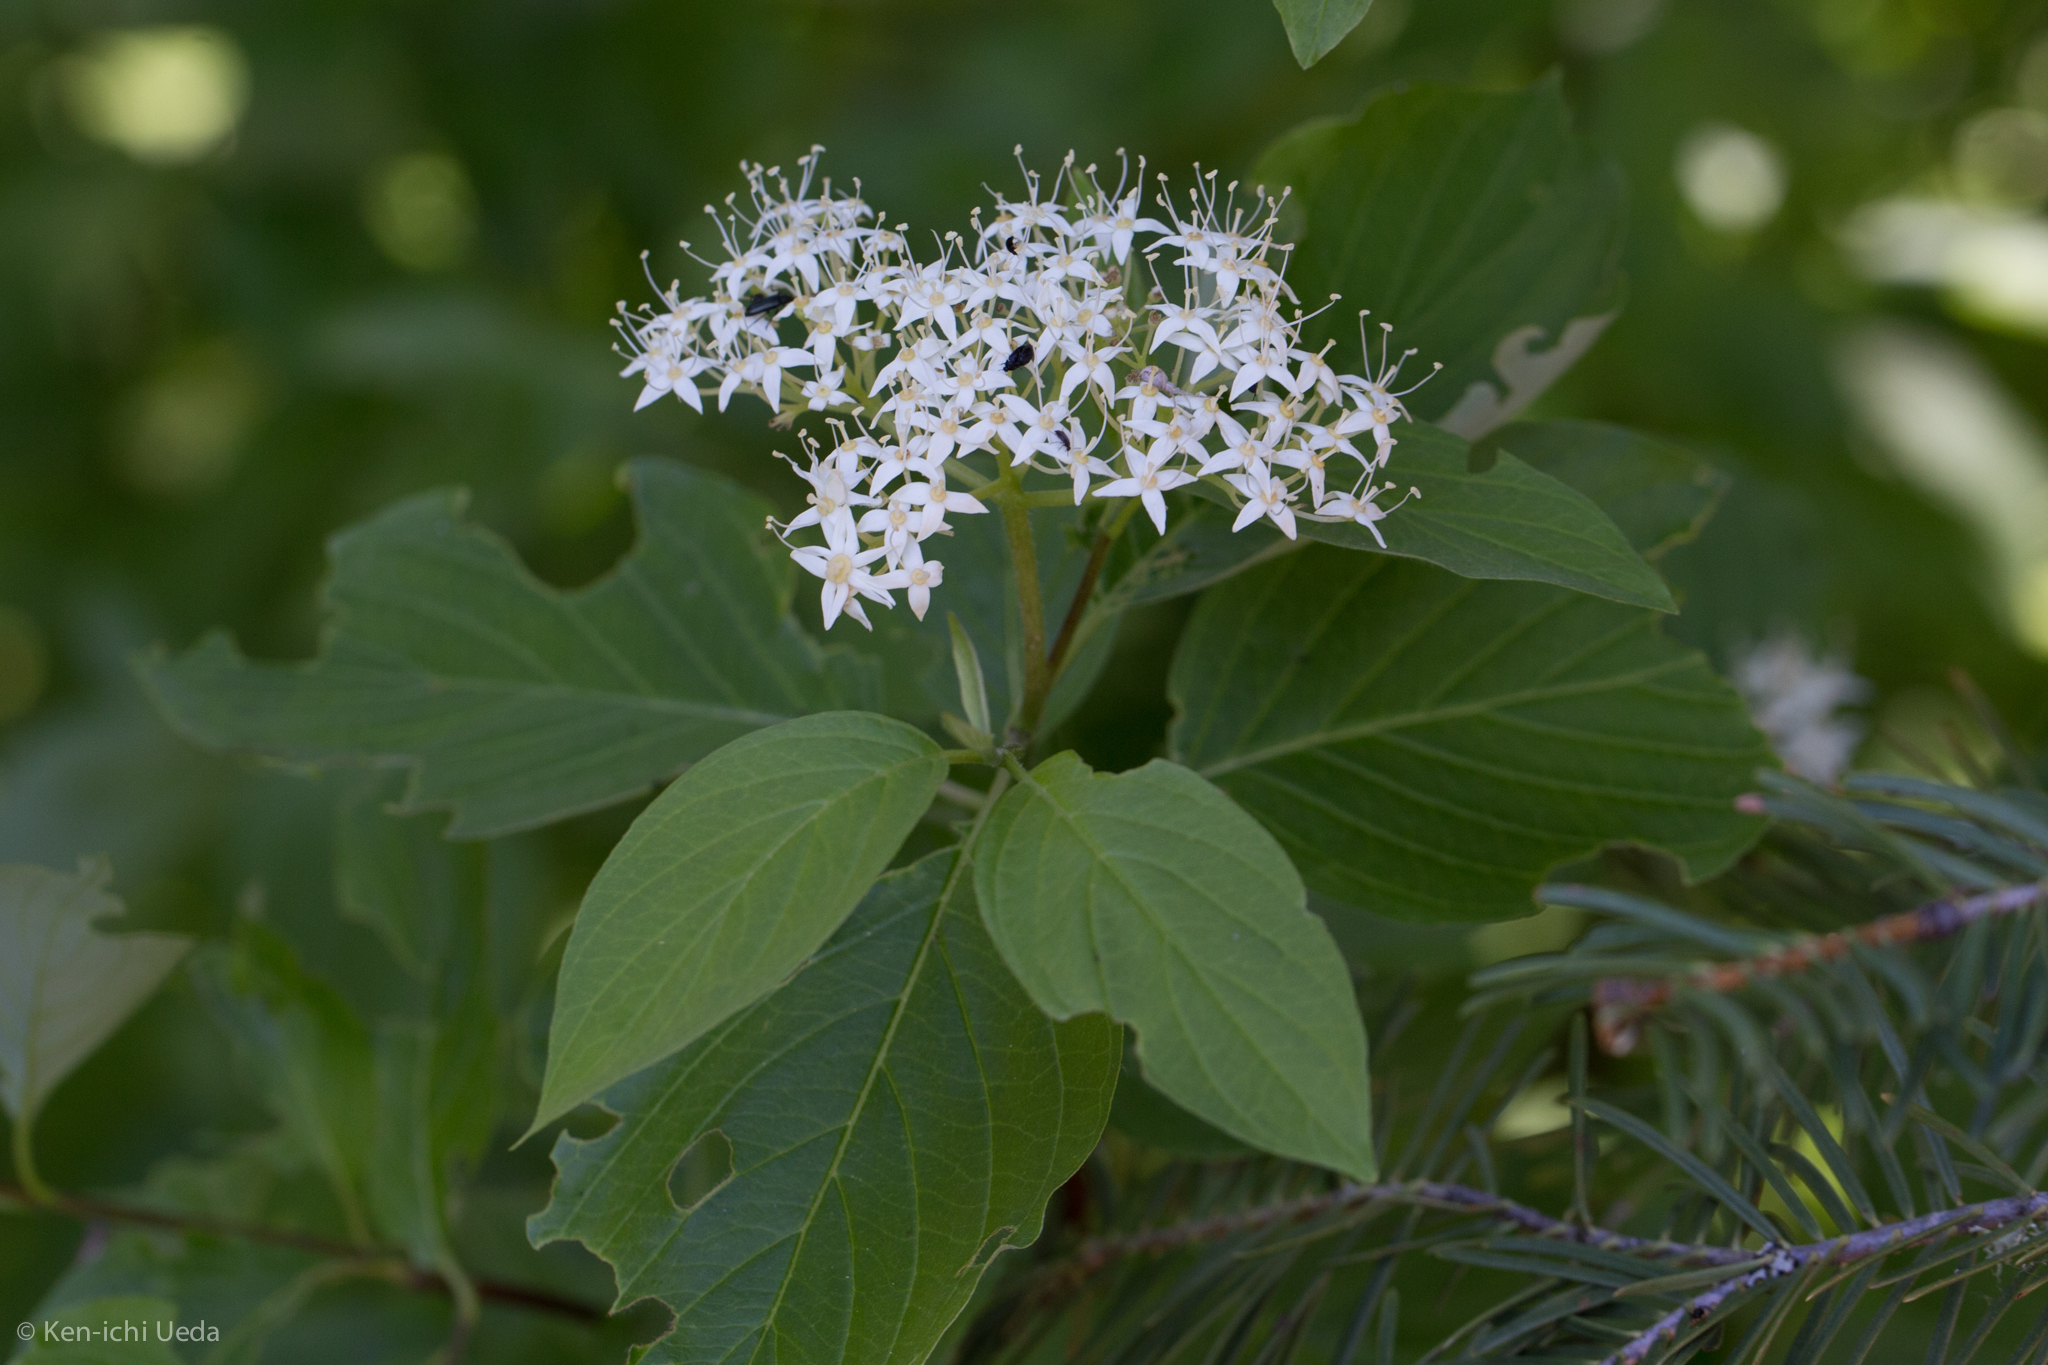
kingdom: Plantae
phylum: Tracheophyta
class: Magnoliopsida
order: Cornales
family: Cornaceae
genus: Cornus
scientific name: Cornus sericea
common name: Red-osier dogwood
